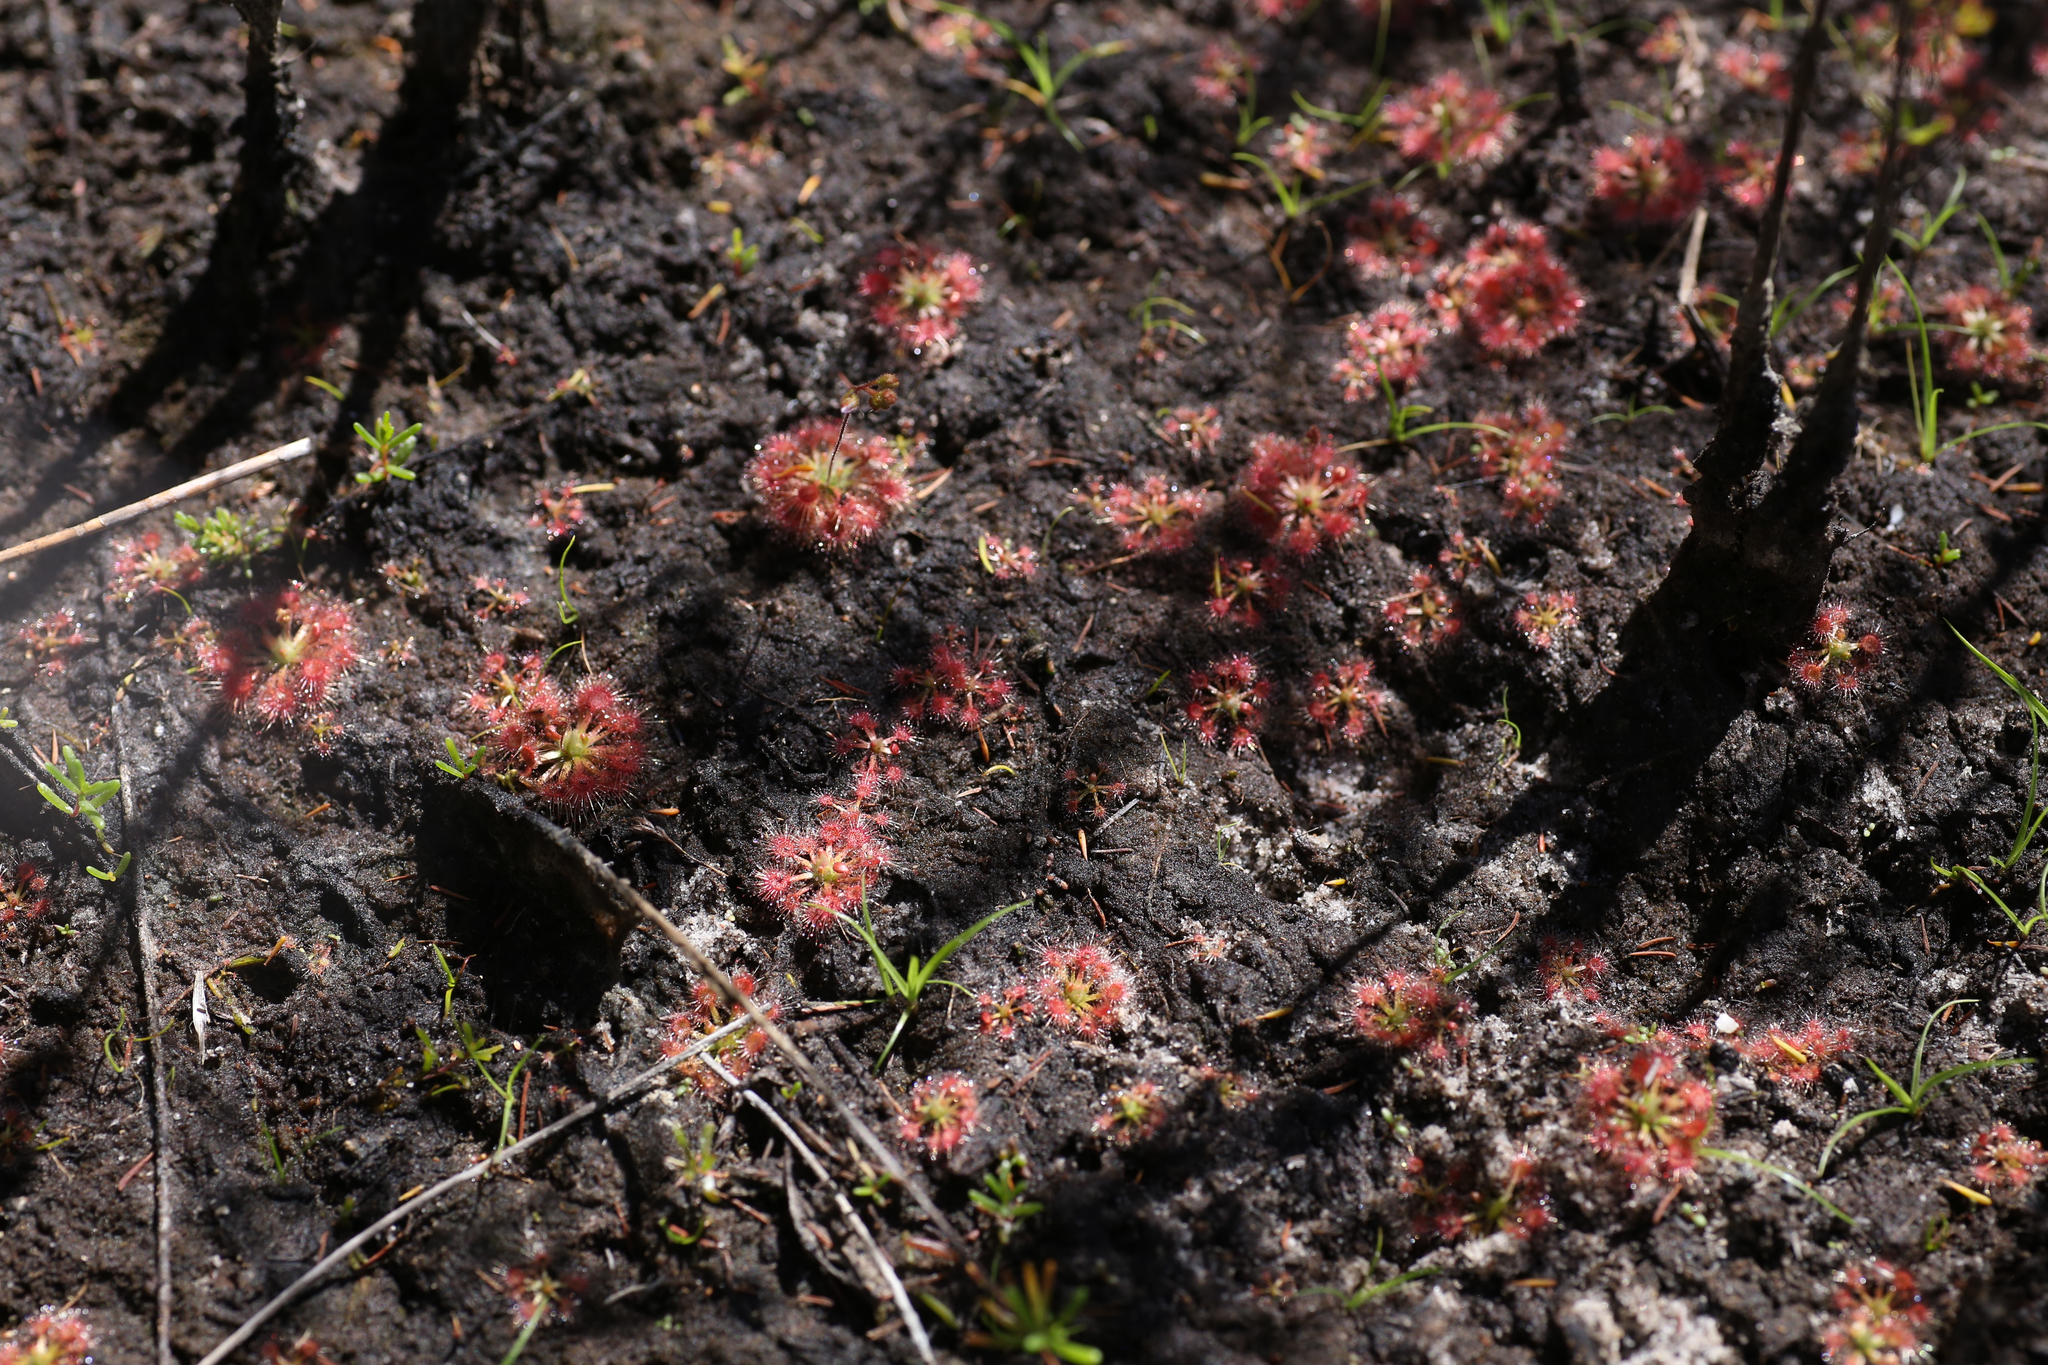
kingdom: Plantae
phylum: Tracheophyta
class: Magnoliopsida
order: Caryophyllales
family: Droseraceae
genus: Drosera
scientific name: Drosera sidjamesii
